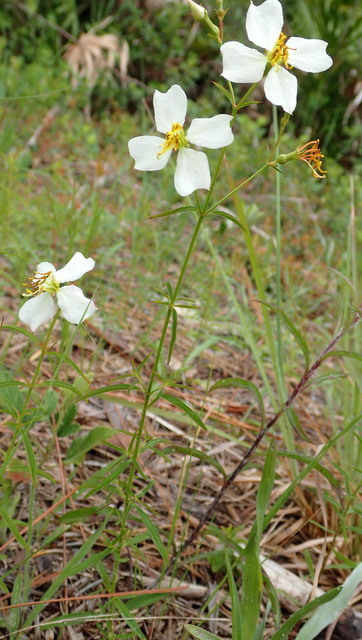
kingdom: Plantae
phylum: Tracheophyta
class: Magnoliopsida
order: Myrtales
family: Melastomataceae
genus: Rhexia
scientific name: Rhexia mariana
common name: Dull meadow-pitcher
